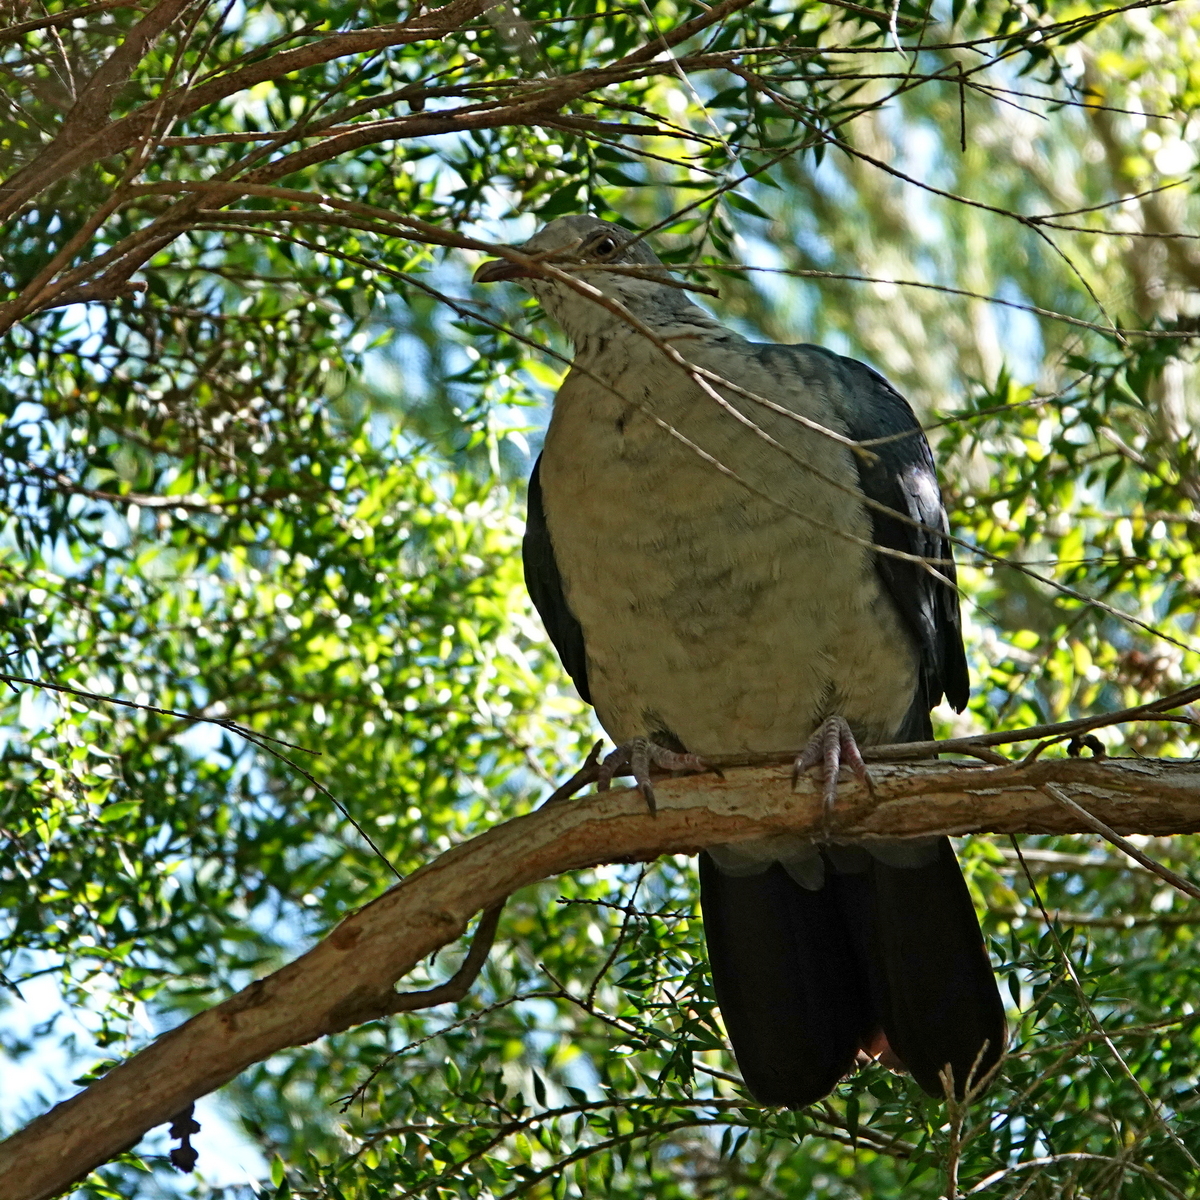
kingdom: Animalia
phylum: Chordata
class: Aves
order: Columbiformes
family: Columbidae
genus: Columba
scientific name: Columba leucomela
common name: White-headed pigeon
